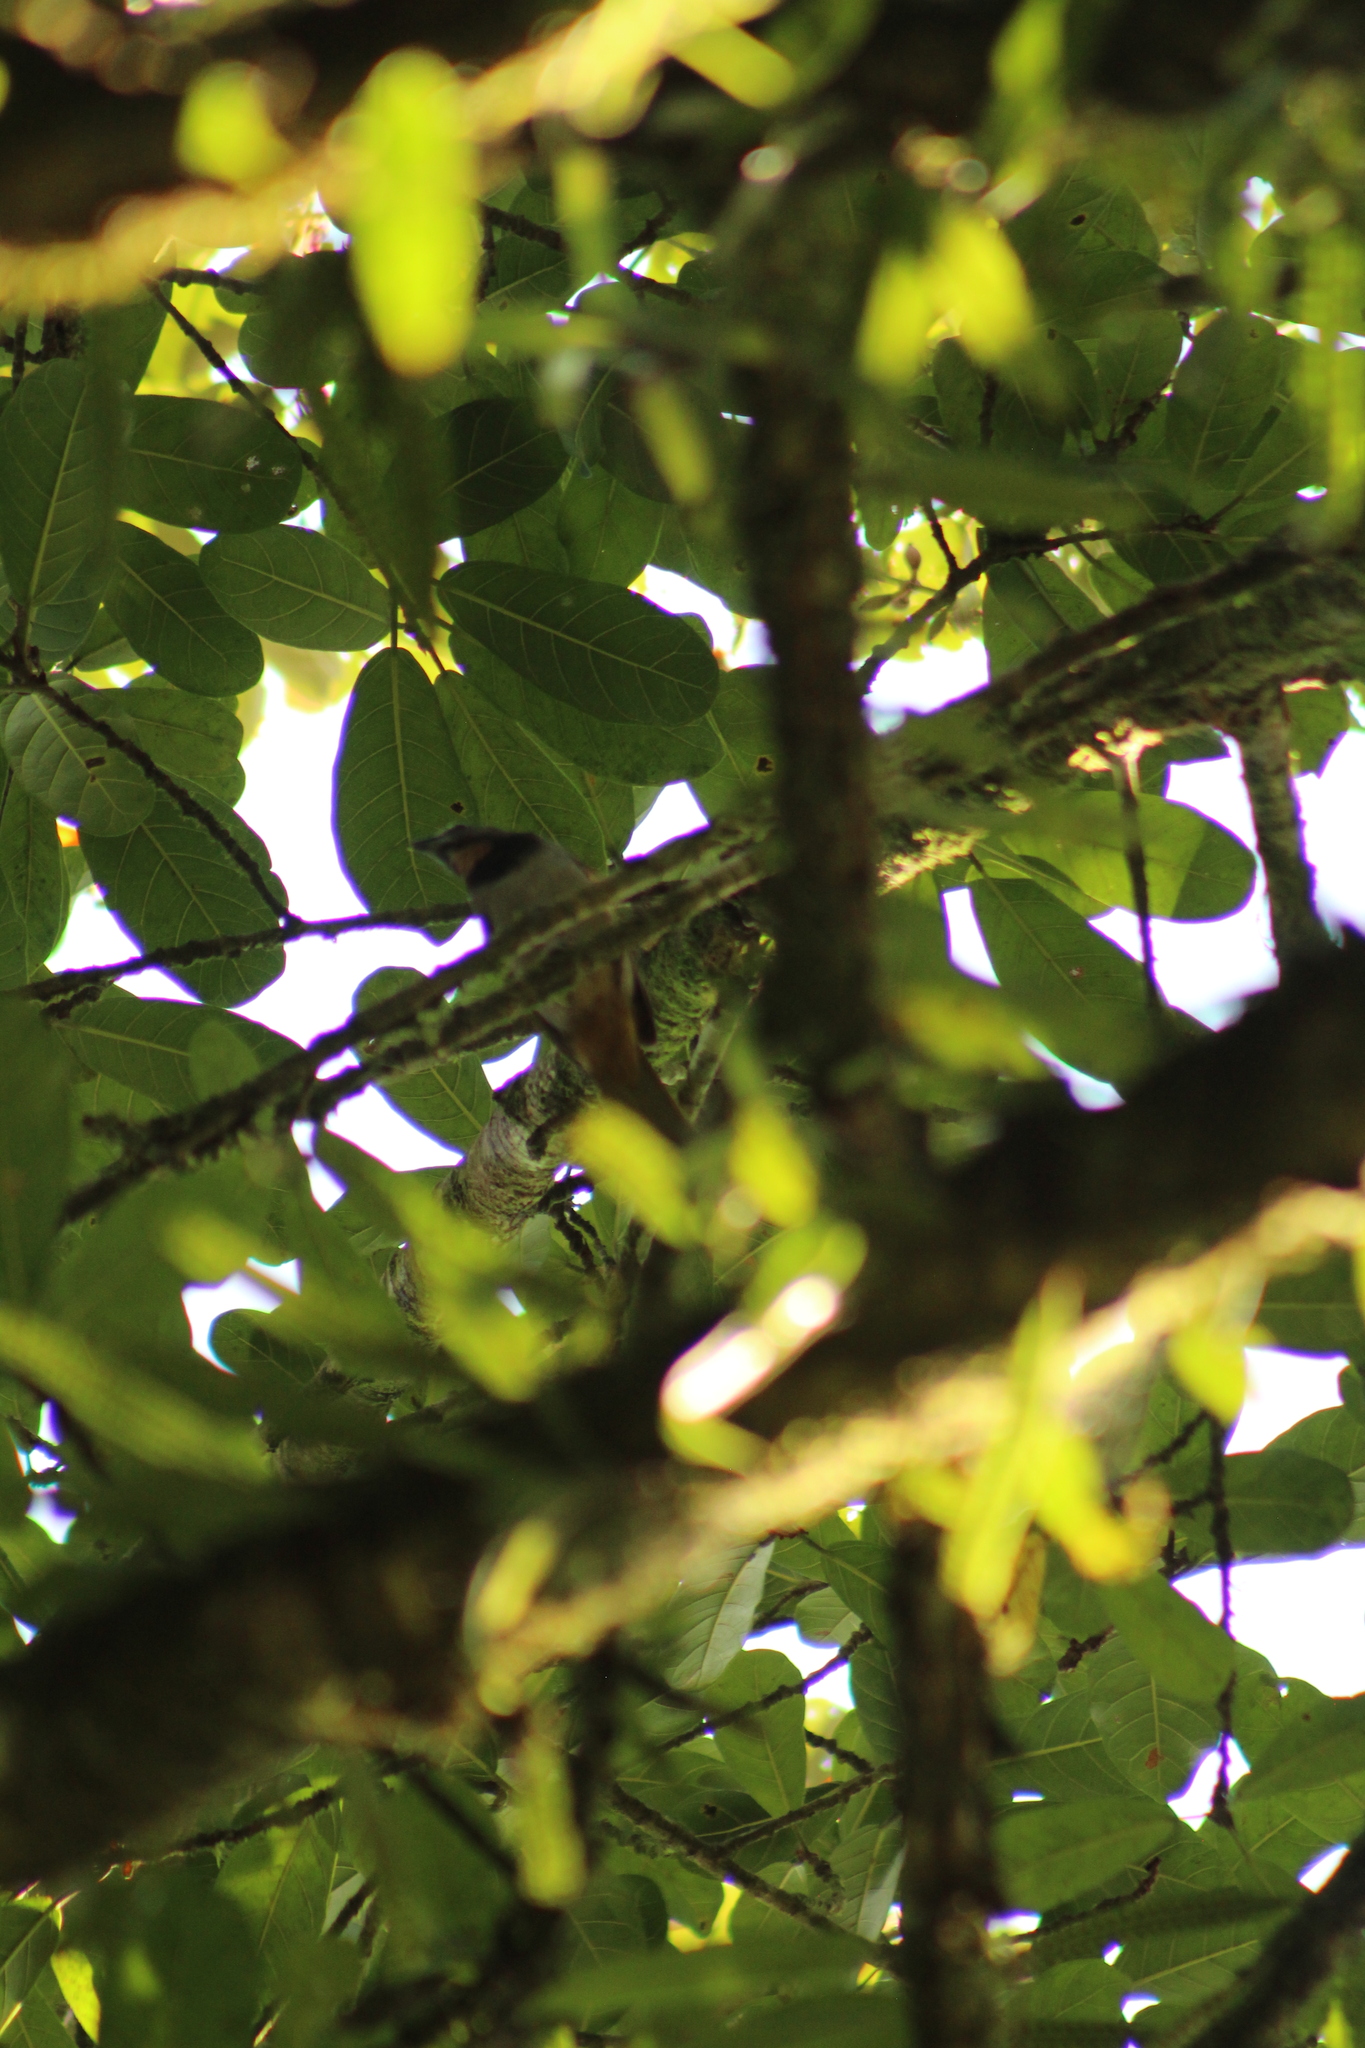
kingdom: Animalia
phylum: Chordata
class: Aves
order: Passeriformes
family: Thraupidae
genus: Saltator
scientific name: Saltator maximus
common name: Buff-throated saltator
